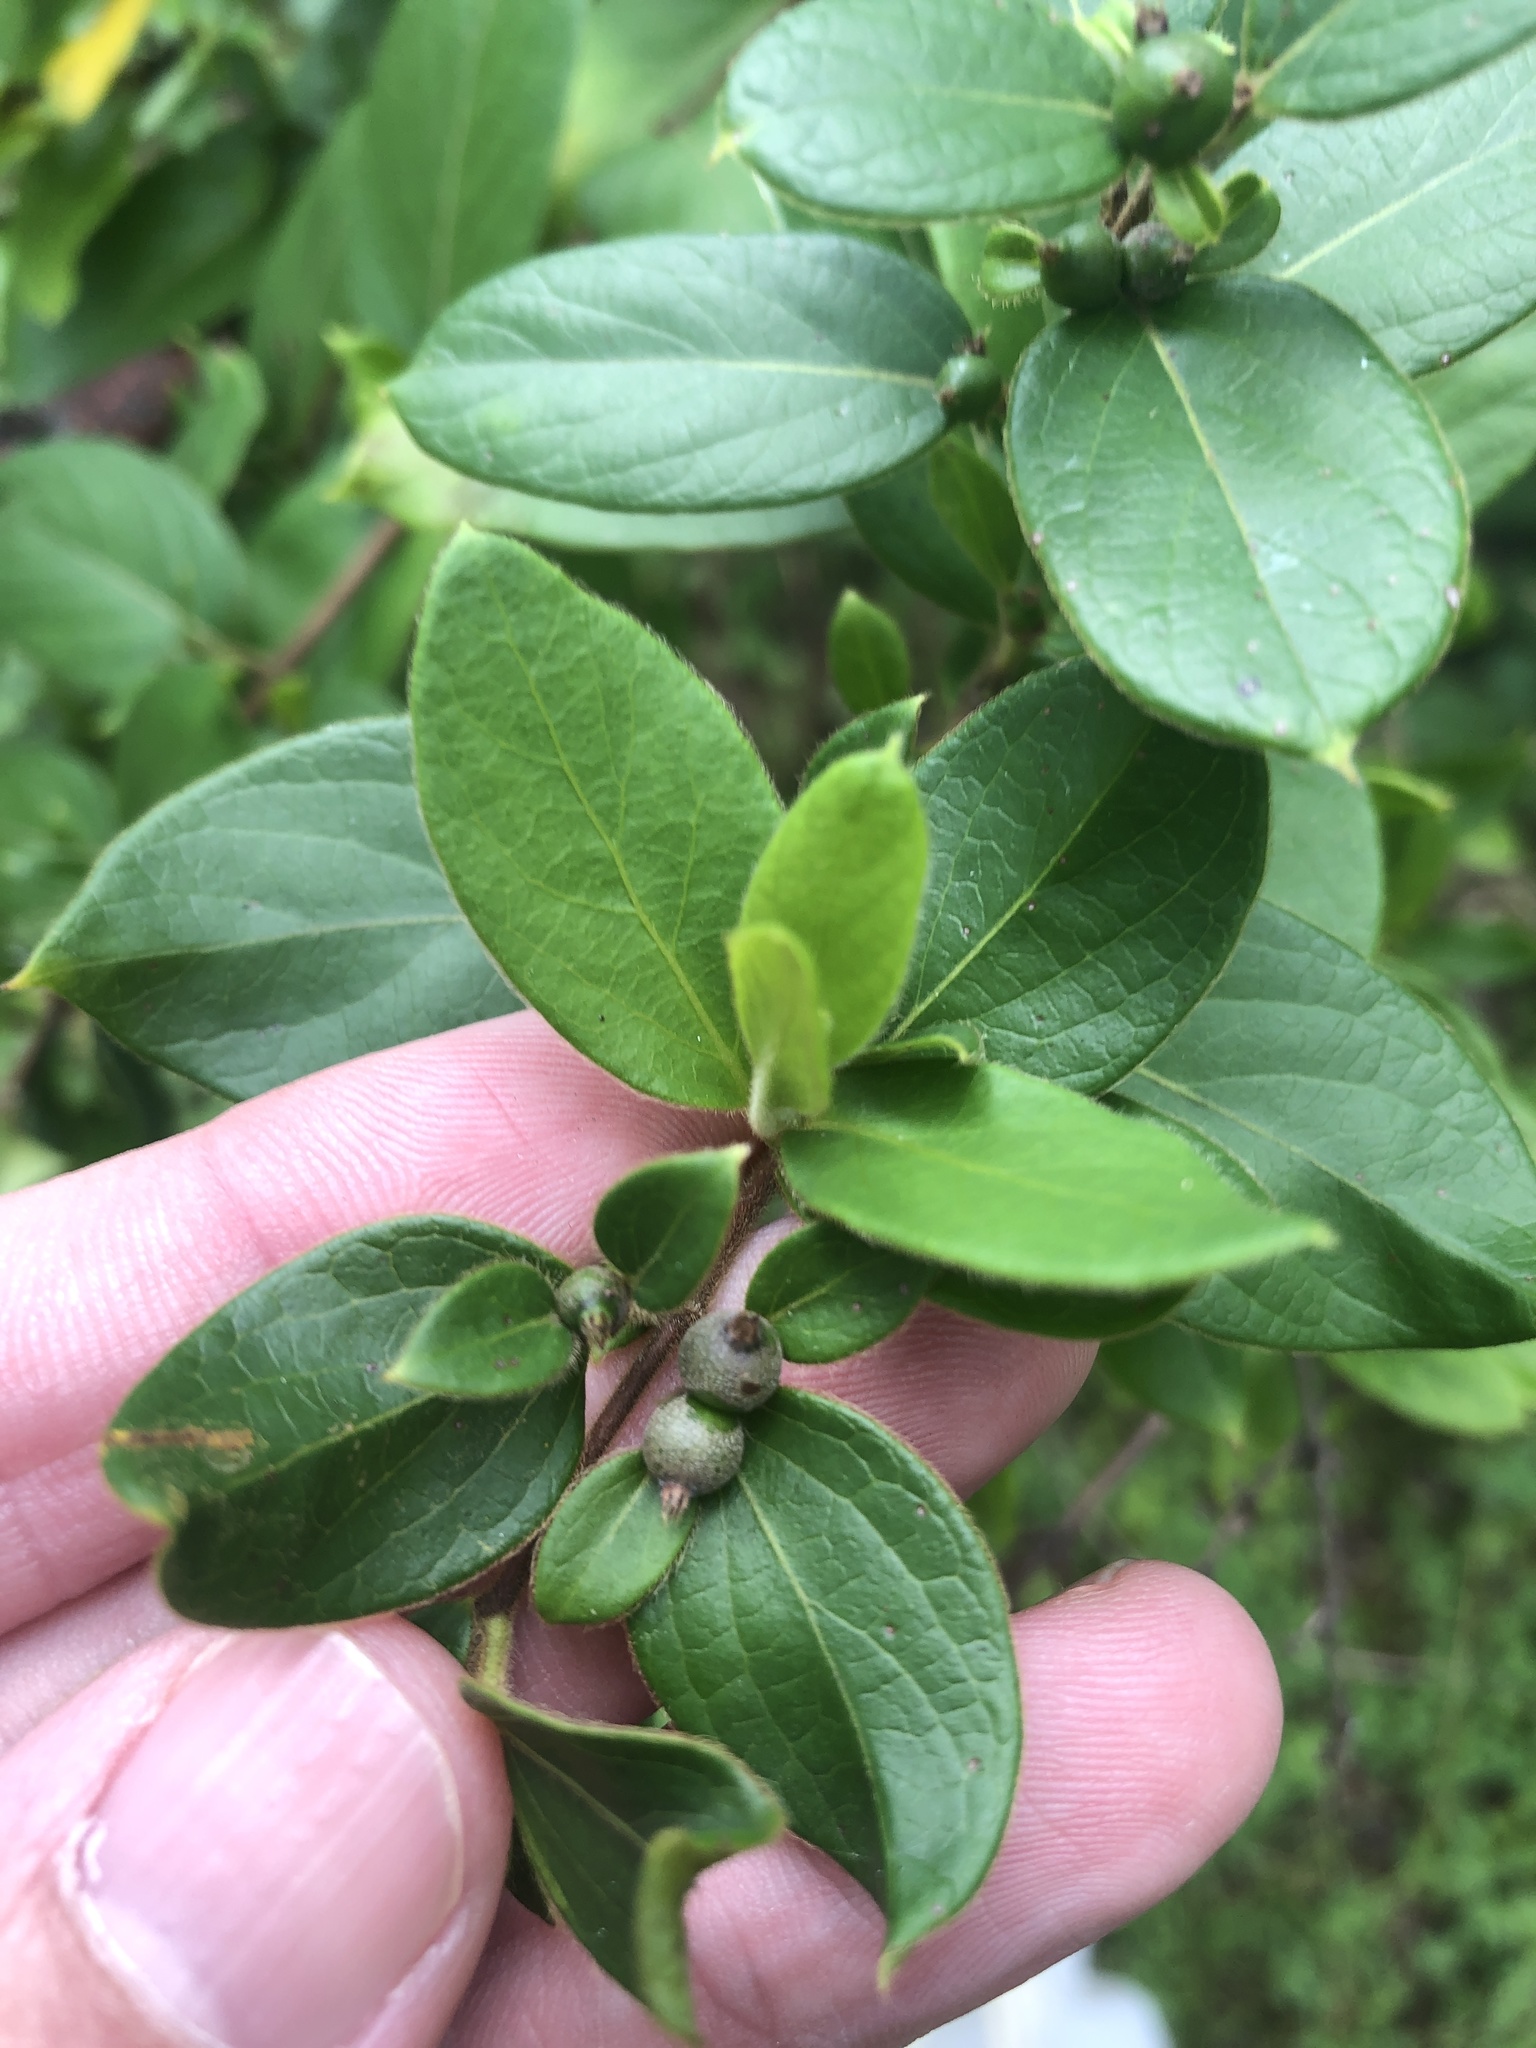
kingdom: Plantae
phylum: Tracheophyta
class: Magnoliopsida
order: Dipsacales
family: Caprifoliaceae
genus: Lonicera
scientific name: Lonicera japonica
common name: Japanese honeysuckle
